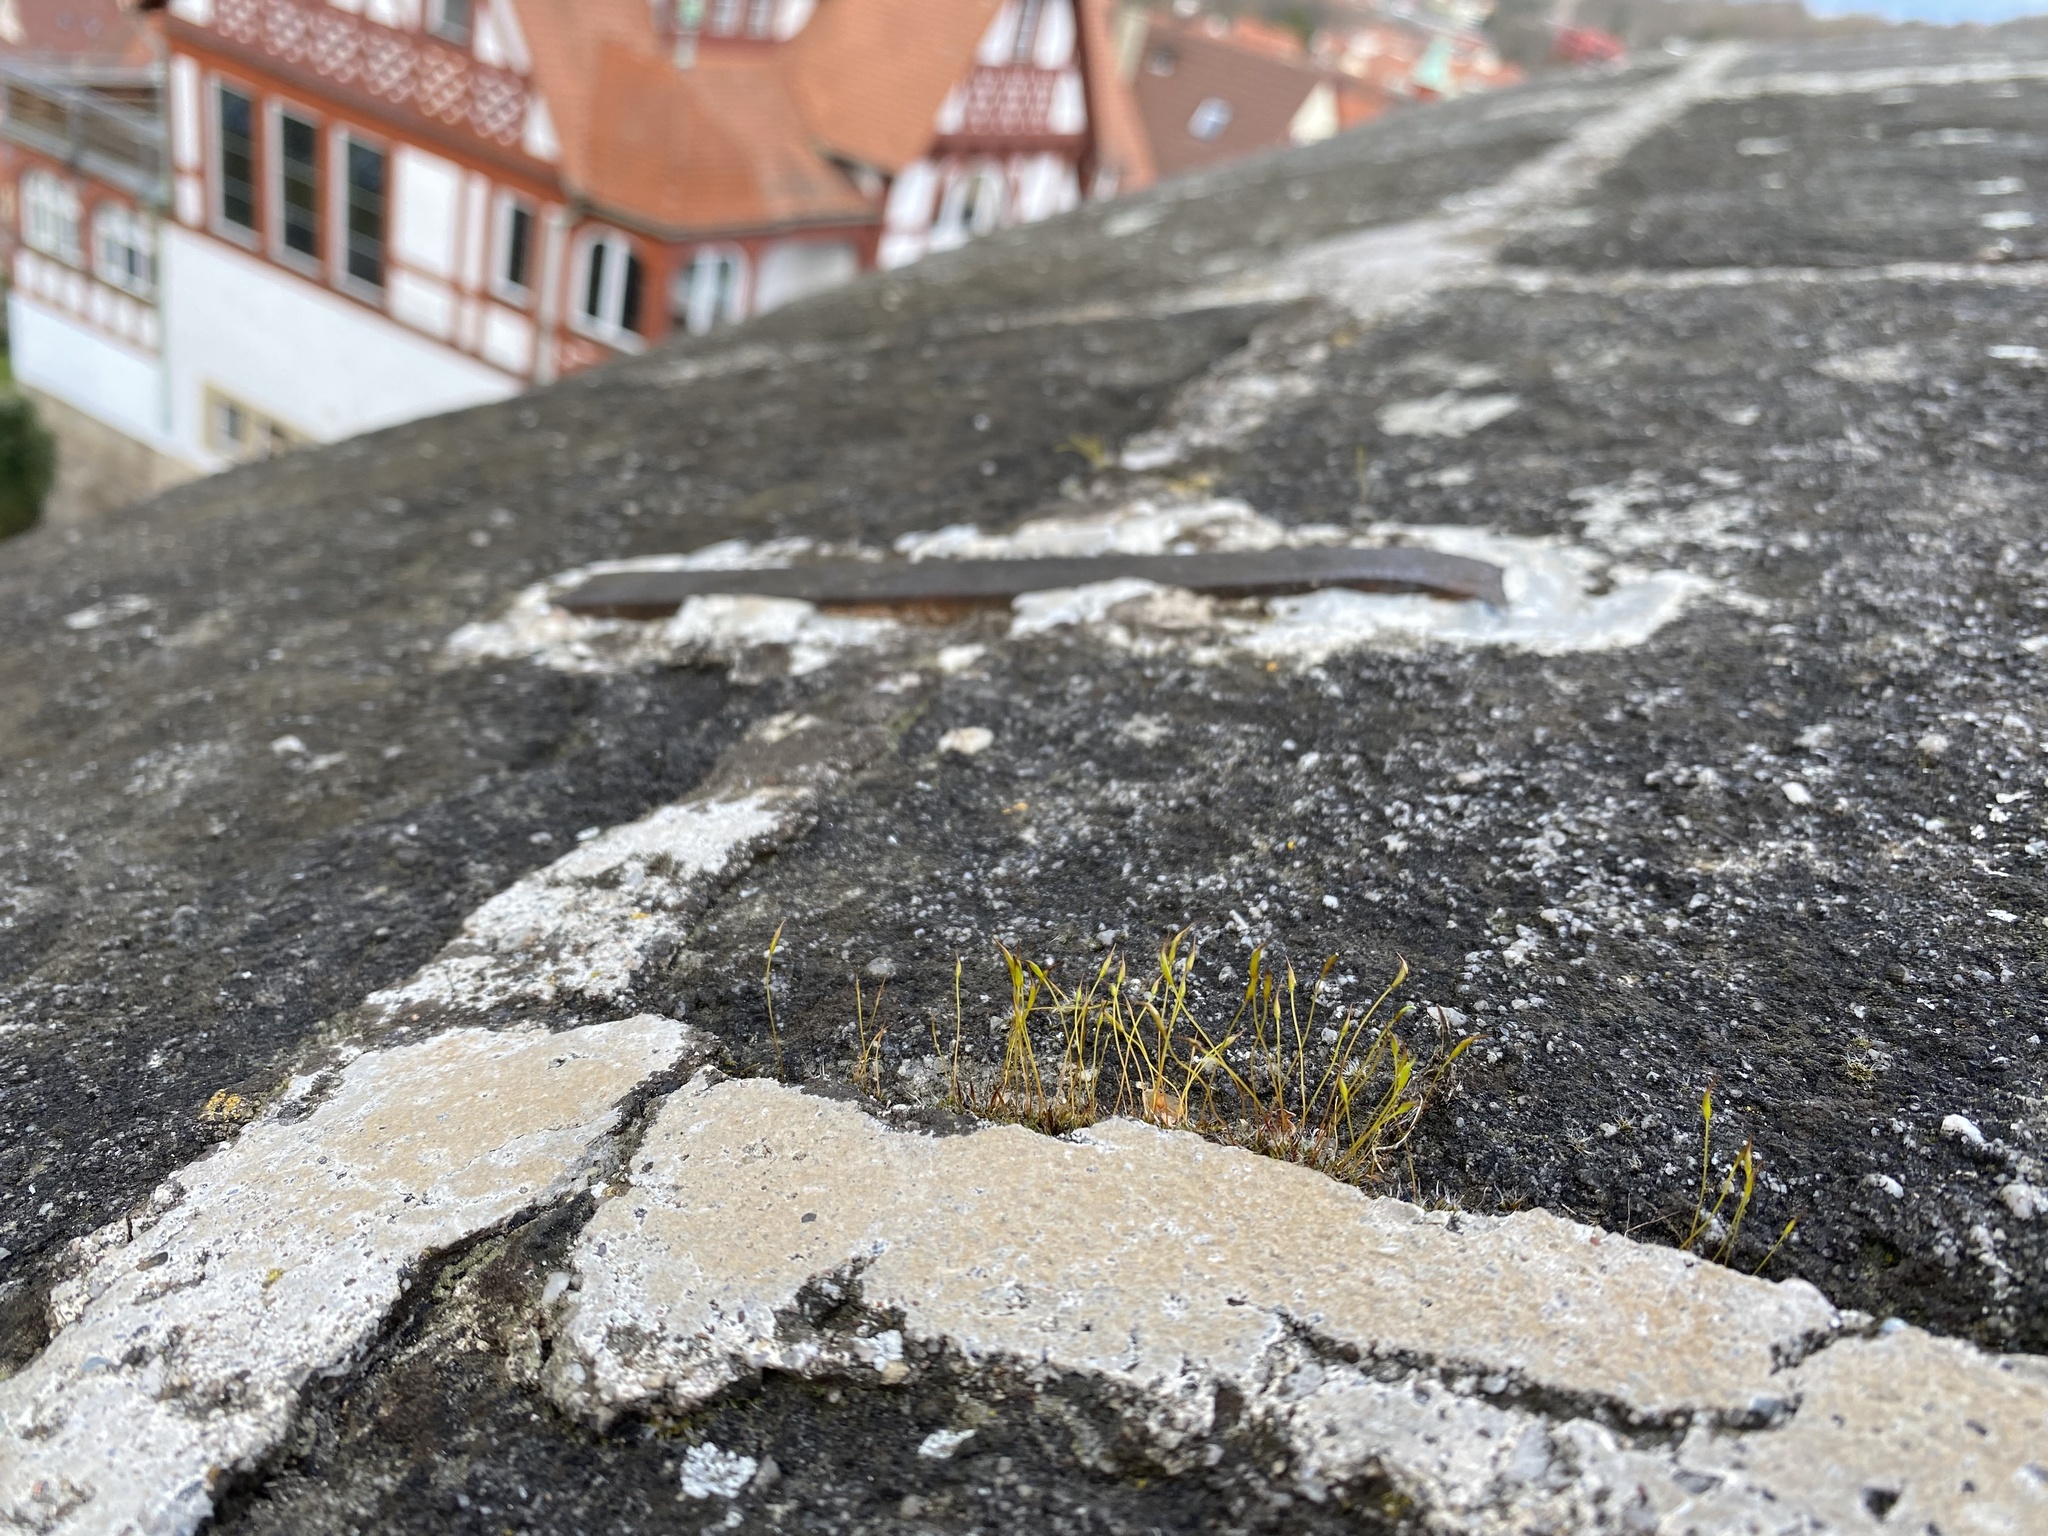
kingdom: Plantae
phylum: Bryophyta
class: Bryopsida
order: Pottiales
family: Pottiaceae
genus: Tortula
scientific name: Tortula muralis
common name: Wall screw-moss
